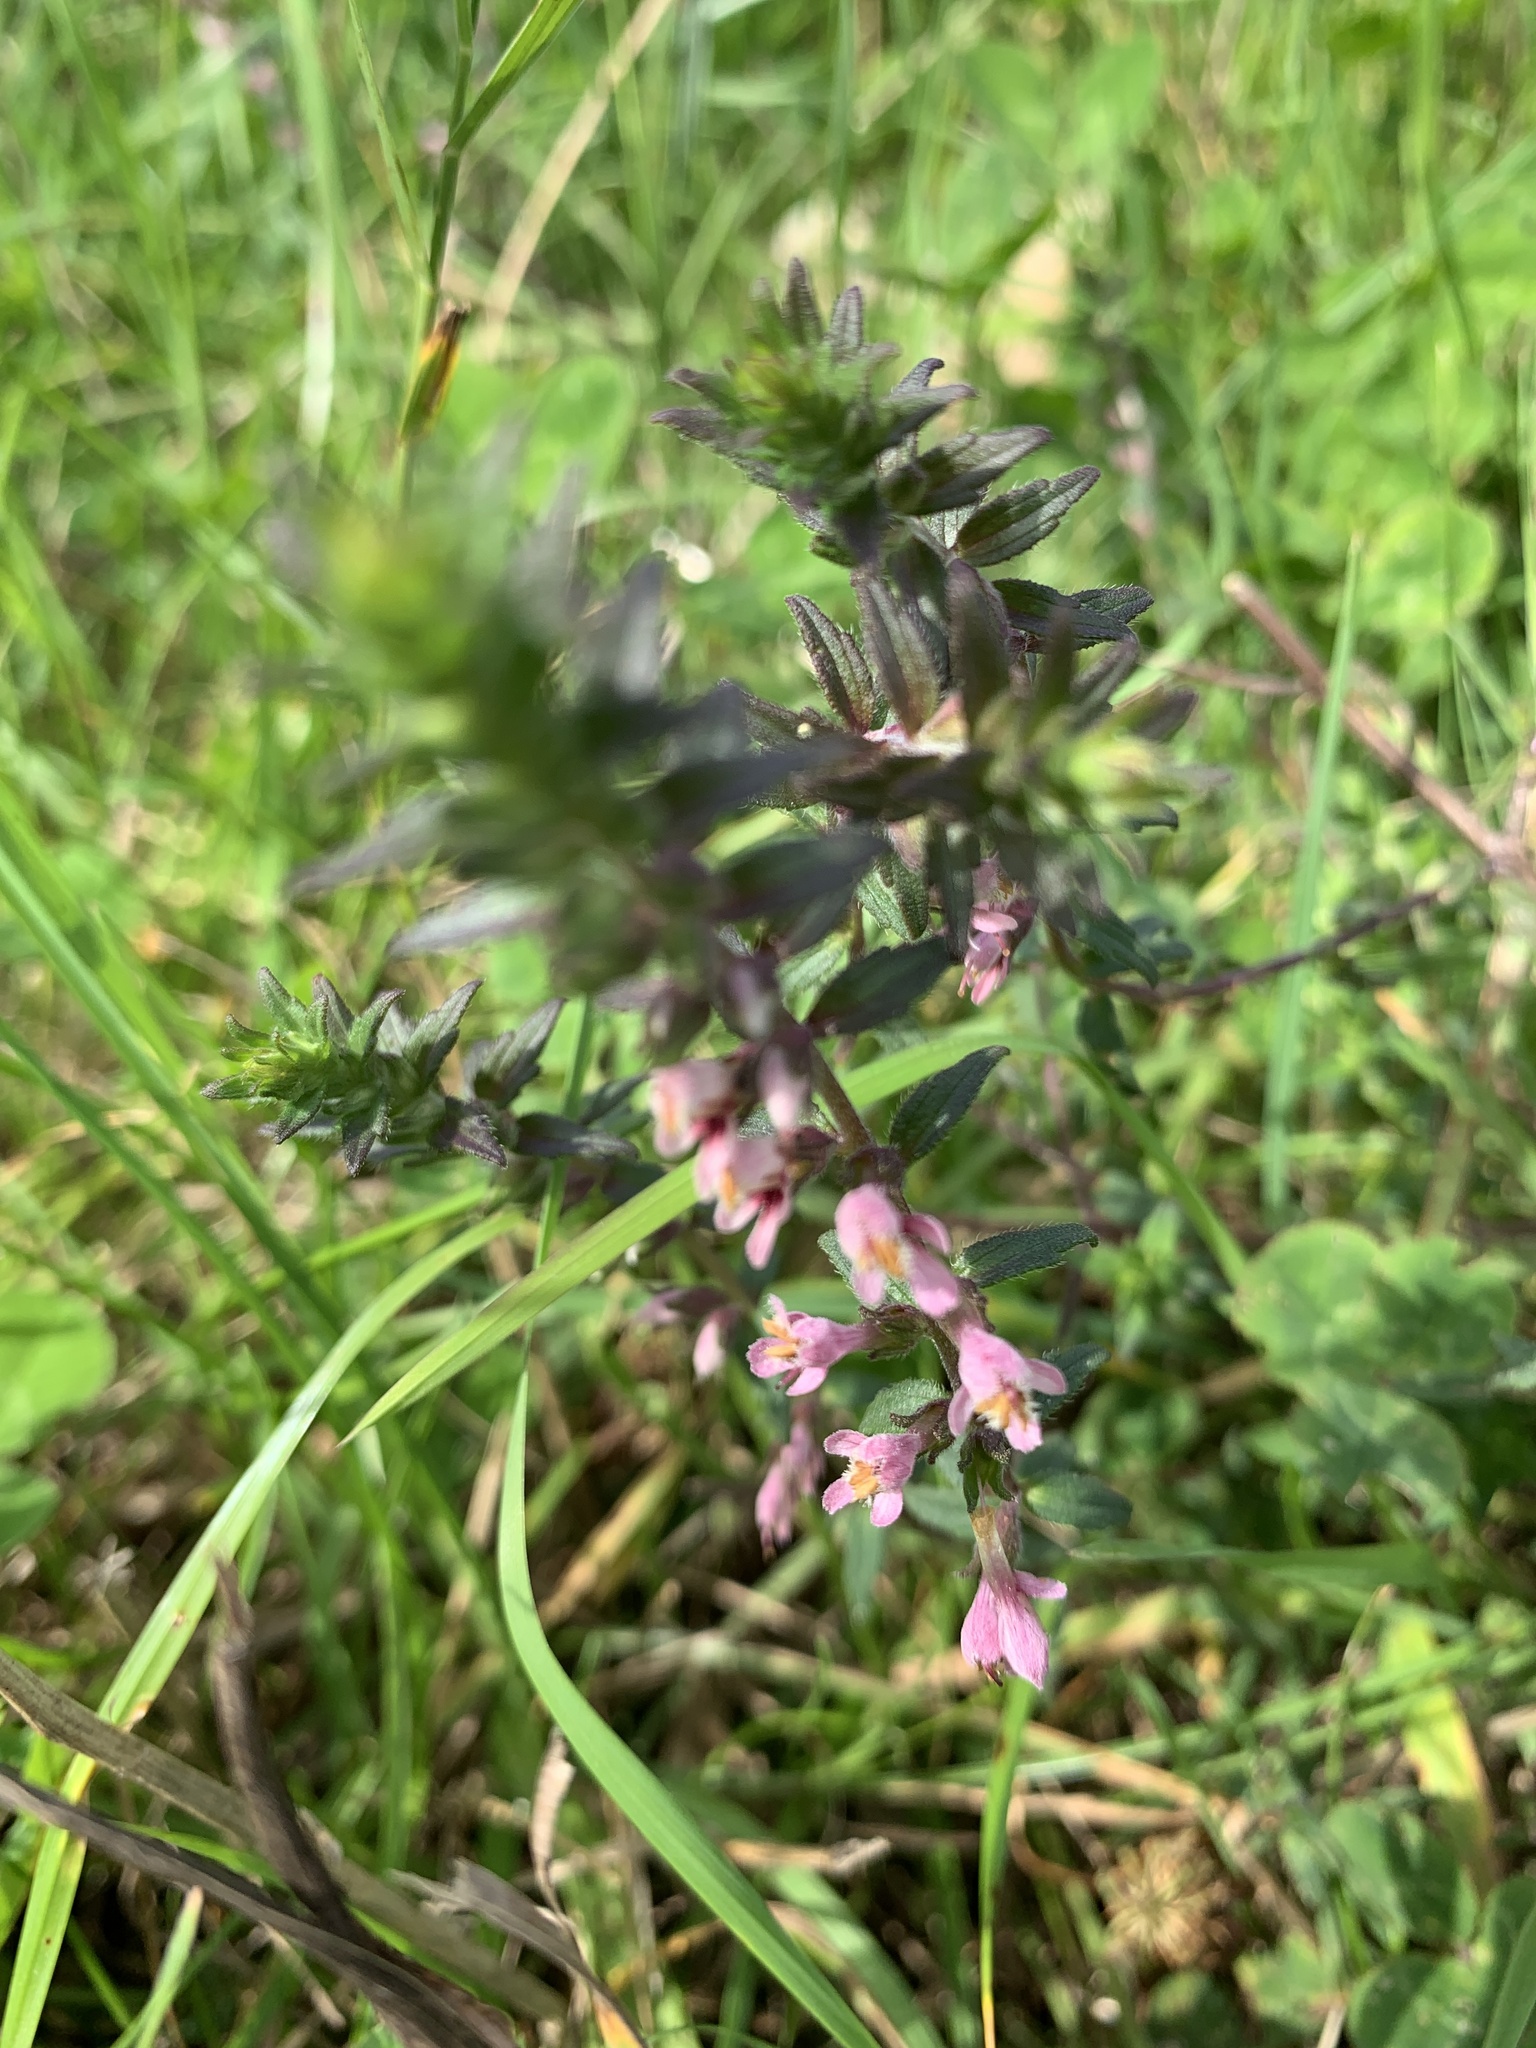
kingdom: Plantae
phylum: Tracheophyta
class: Magnoliopsida
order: Lamiales
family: Orobanchaceae
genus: Odontites
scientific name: Odontites vernus
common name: Red bartsia
